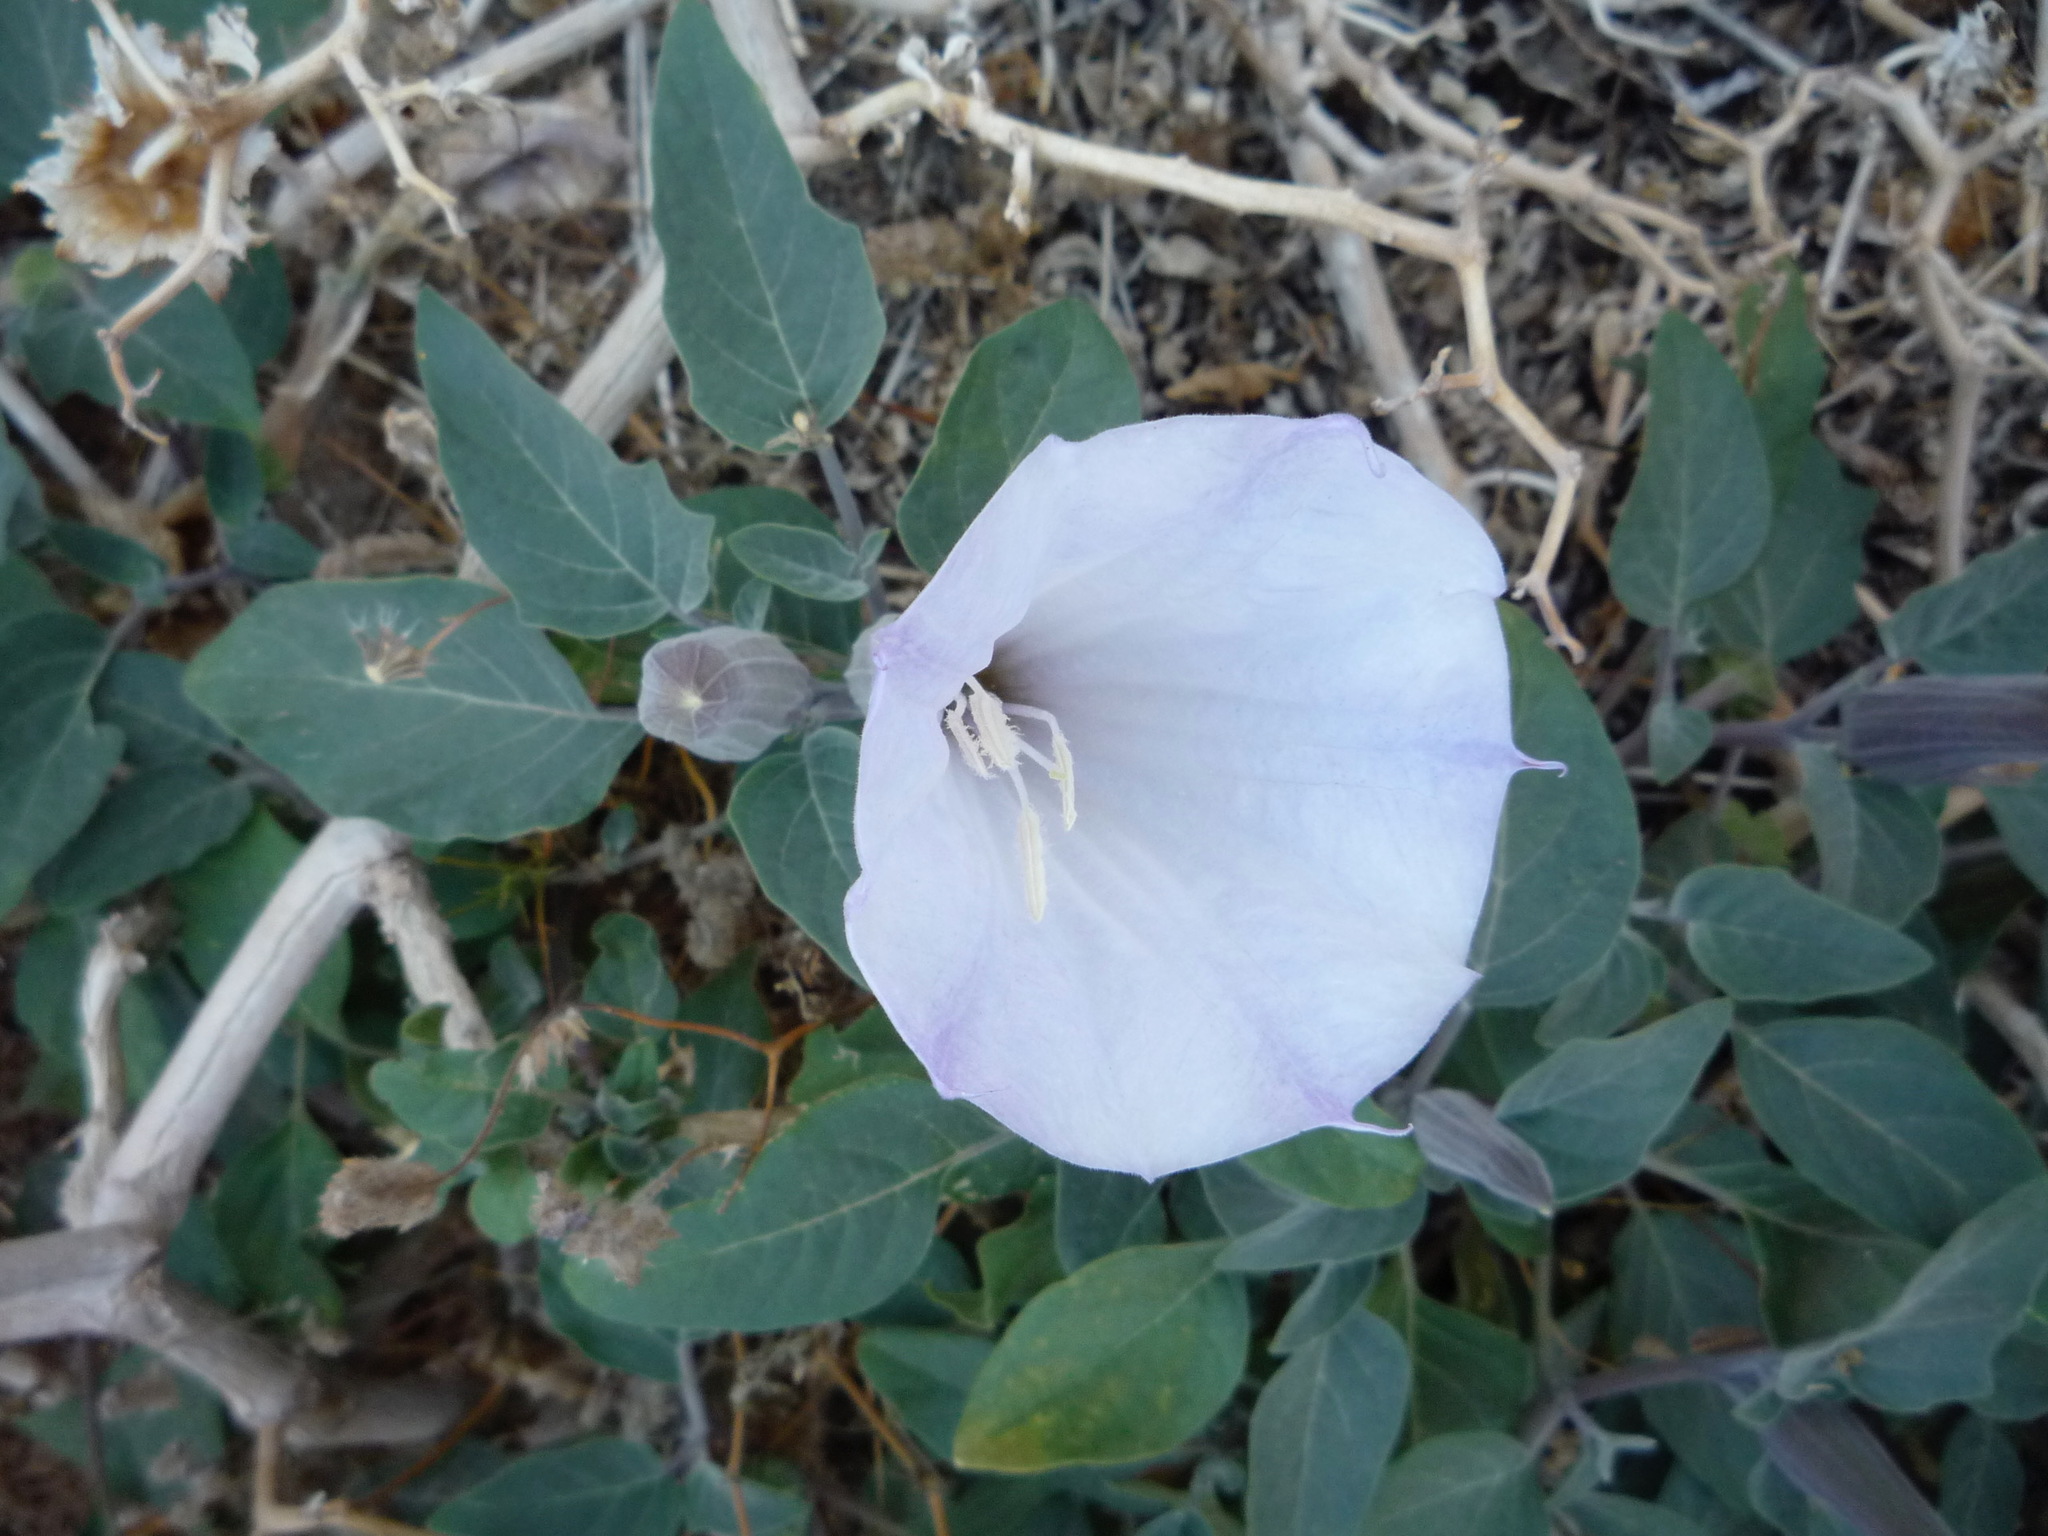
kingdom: Plantae
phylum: Tracheophyta
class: Magnoliopsida
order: Solanales
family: Solanaceae
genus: Datura
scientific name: Datura wrightii
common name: Sacred thorn-apple
